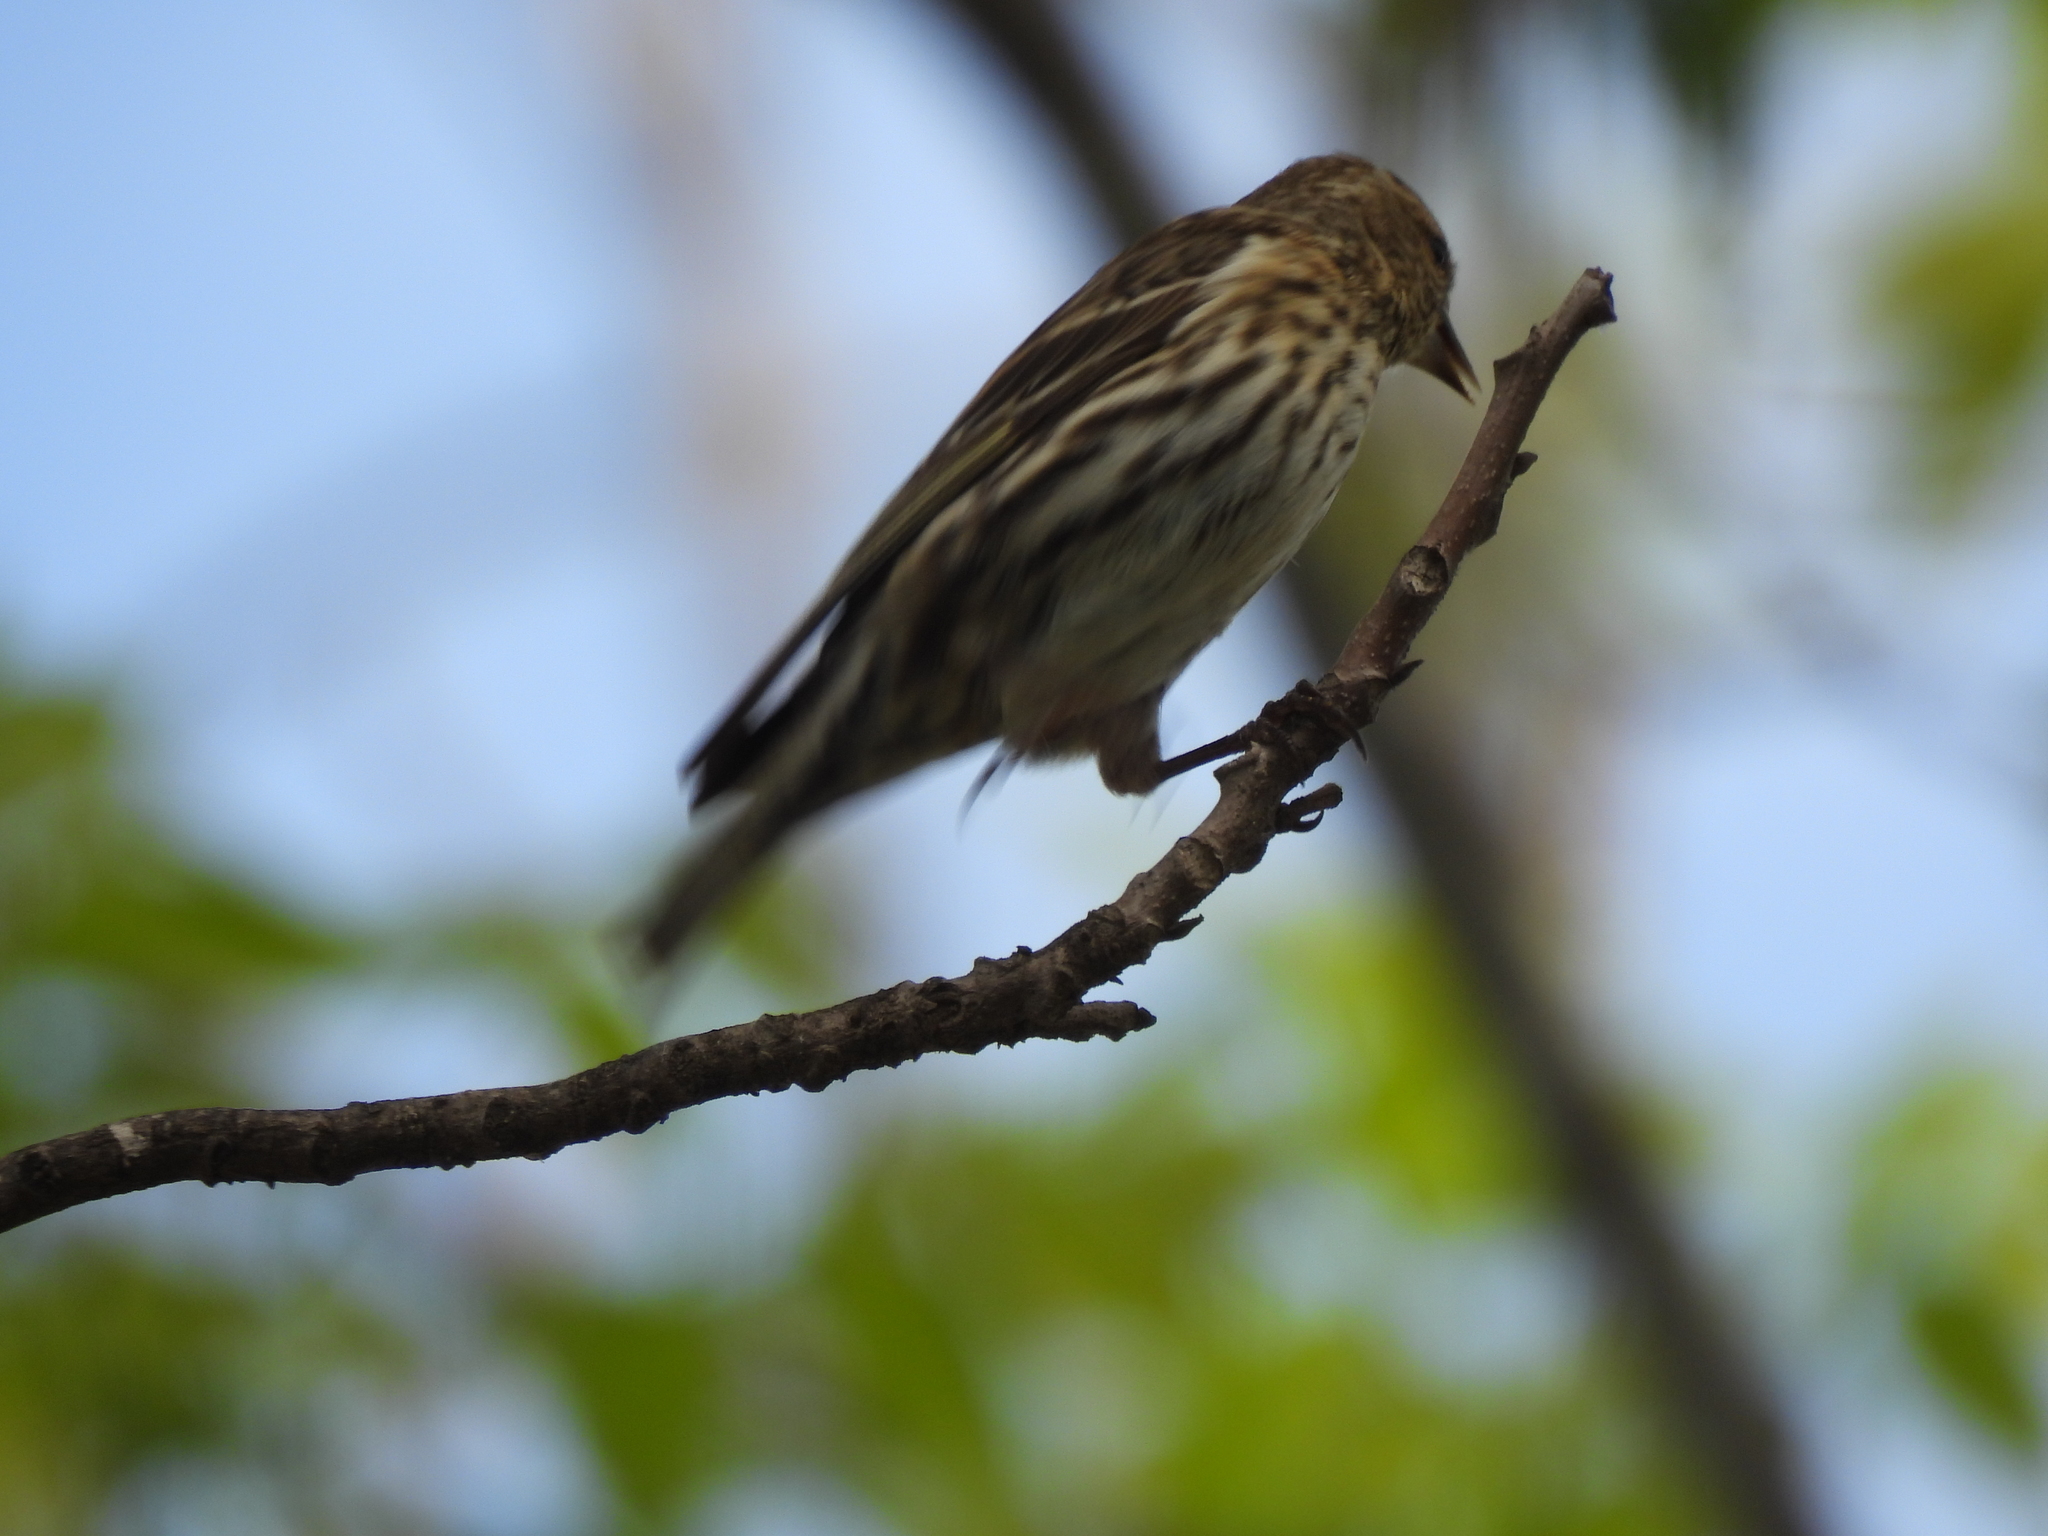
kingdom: Animalia
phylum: Chordata
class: Aves
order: Passeriformes
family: Fringillidae
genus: Spinus
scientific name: Spinus pinus
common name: Pine siskin
